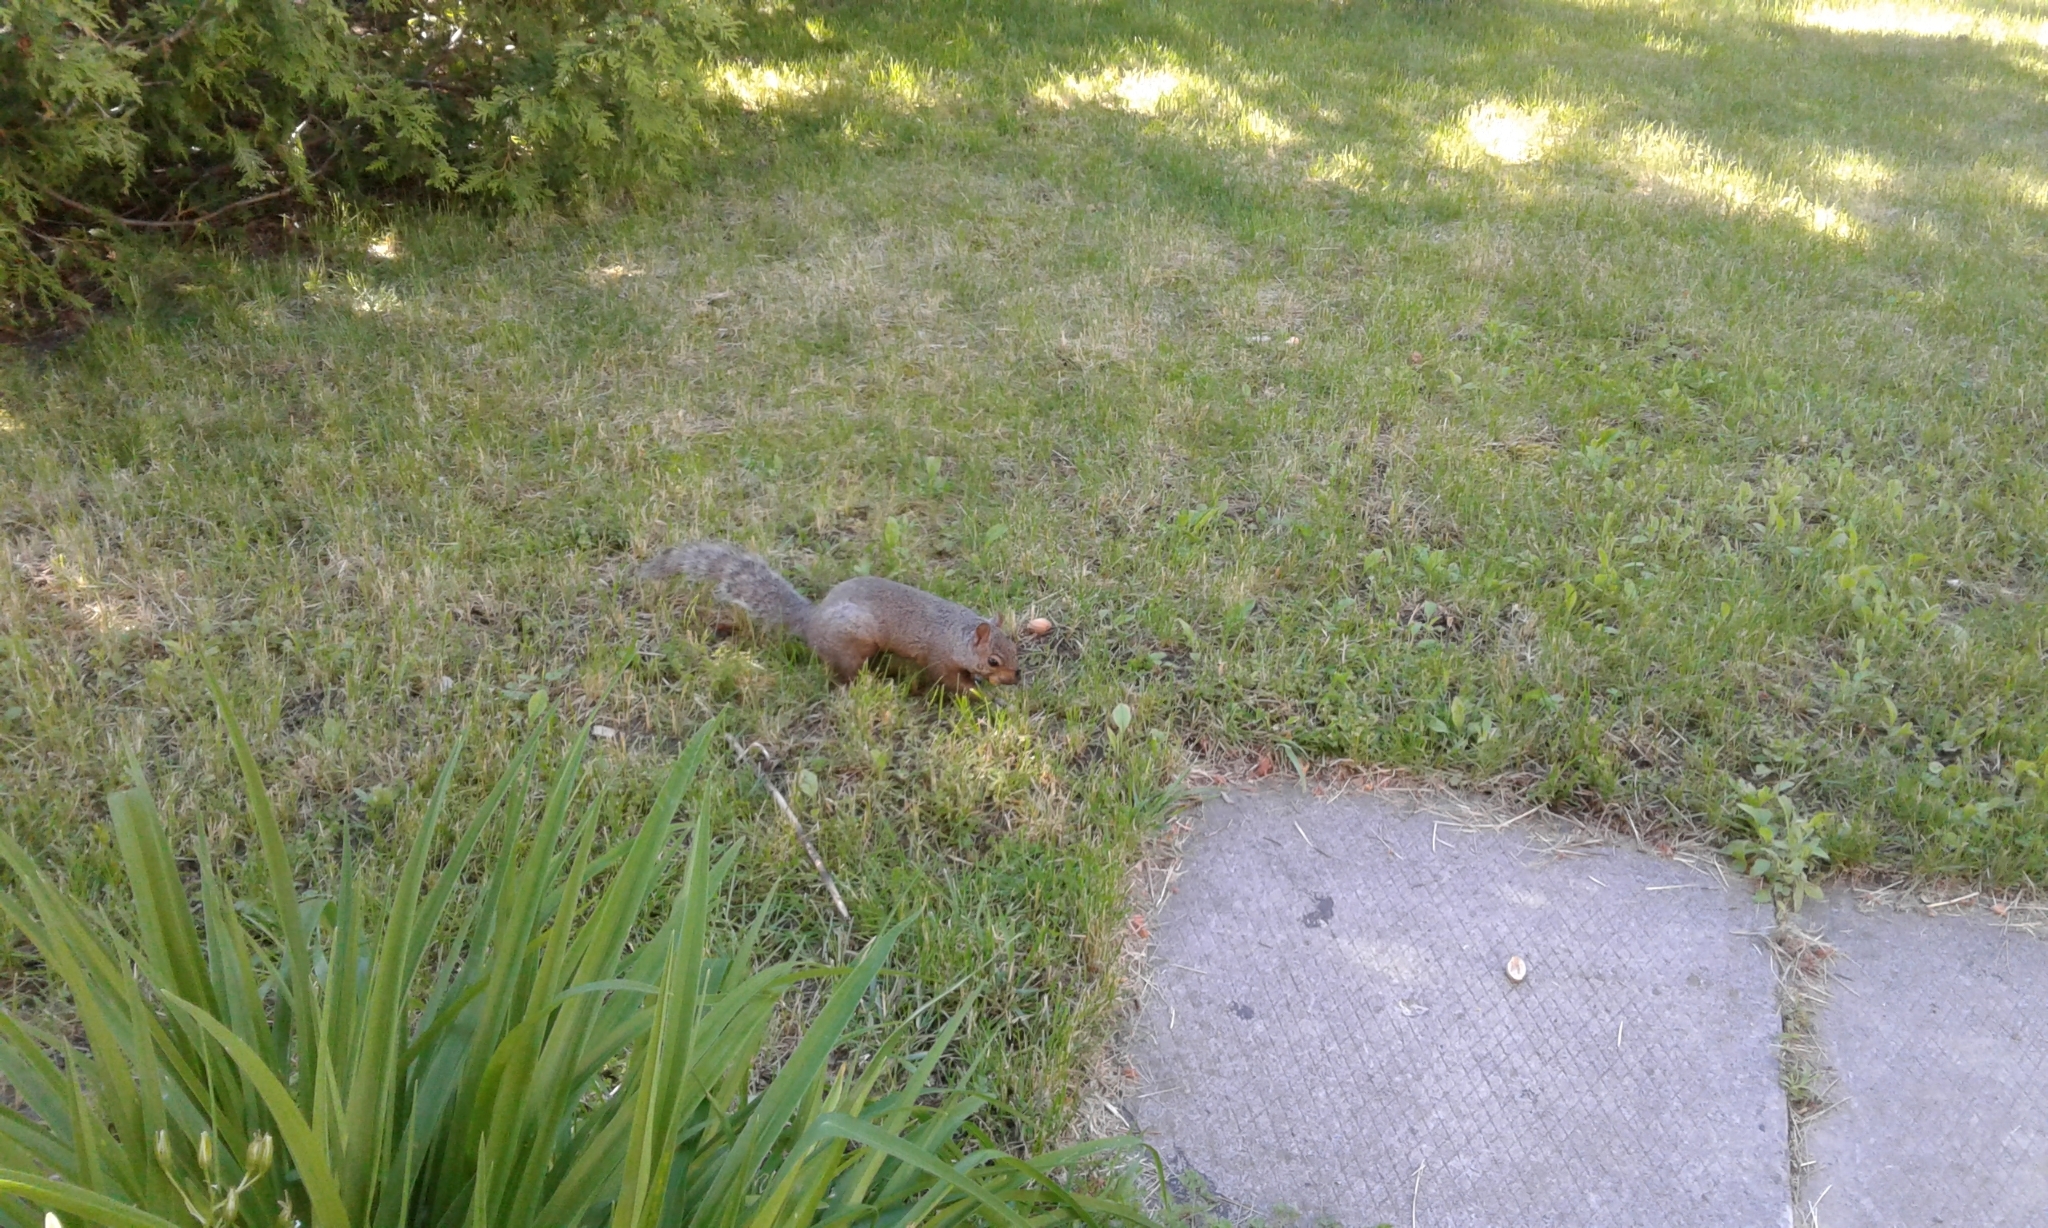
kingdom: Animalia
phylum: Chordata
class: Mammalia
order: Rodentia
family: Sciuridae
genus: Sciurus
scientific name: Sciurus carolinensis
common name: Eastern gray squirrel
